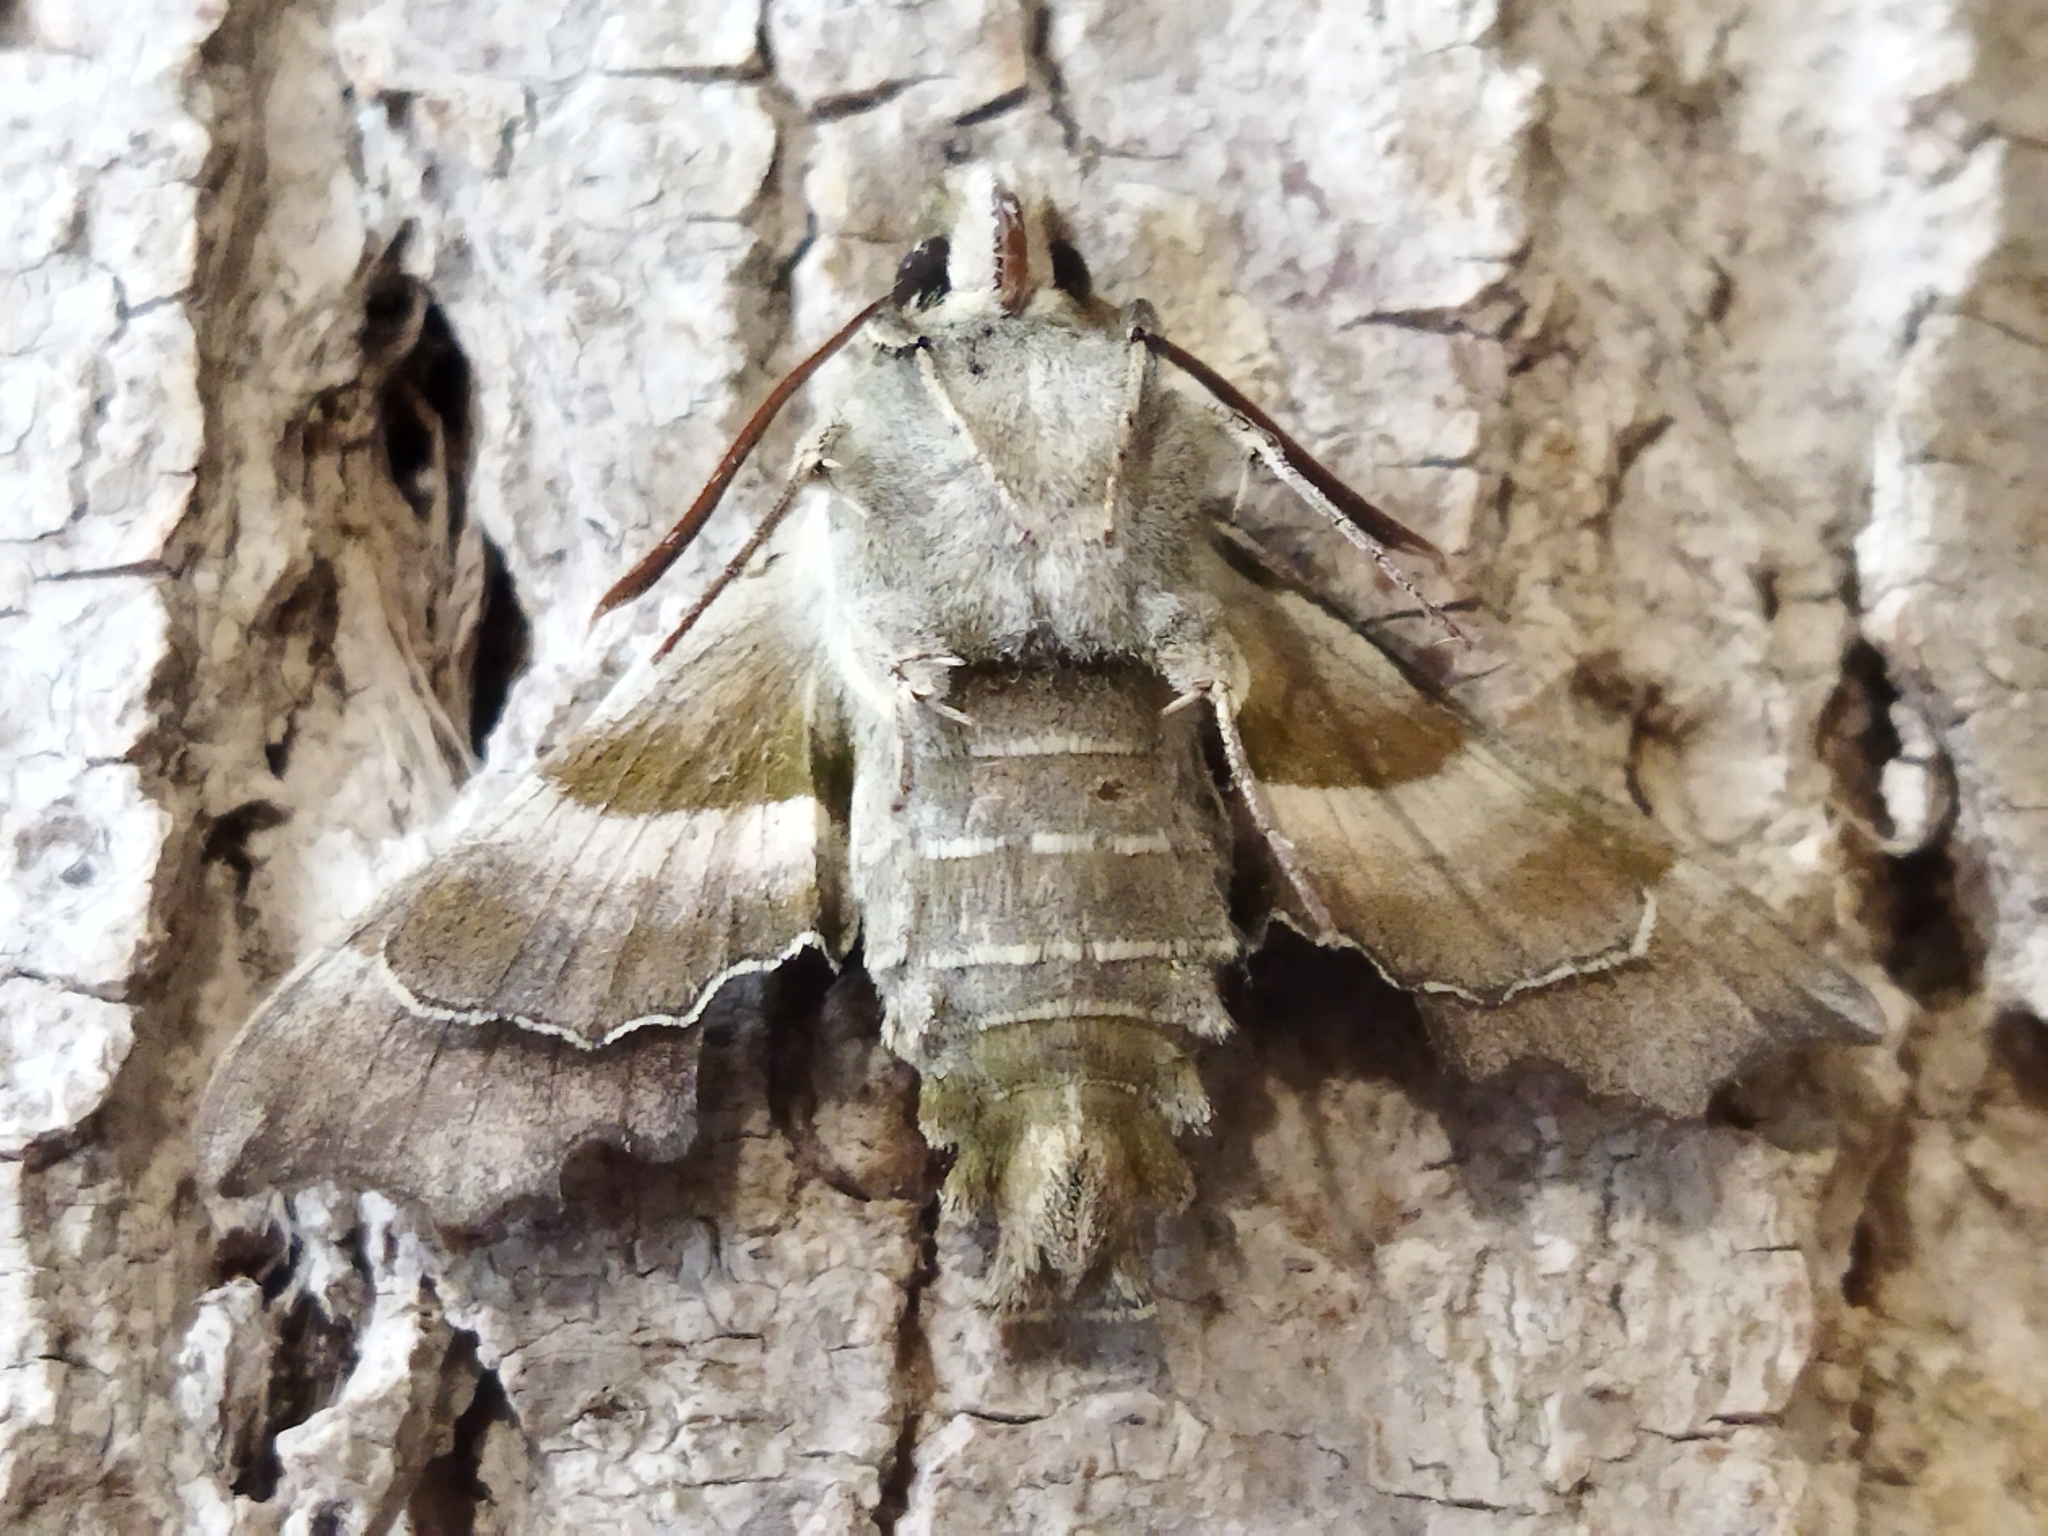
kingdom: Animalia
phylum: Arthropoda
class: Insecta
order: Lepidoptera
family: Sphingidae
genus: Proserpinus
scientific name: Proserpinus proserpina
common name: Willowherb hawkmoth
